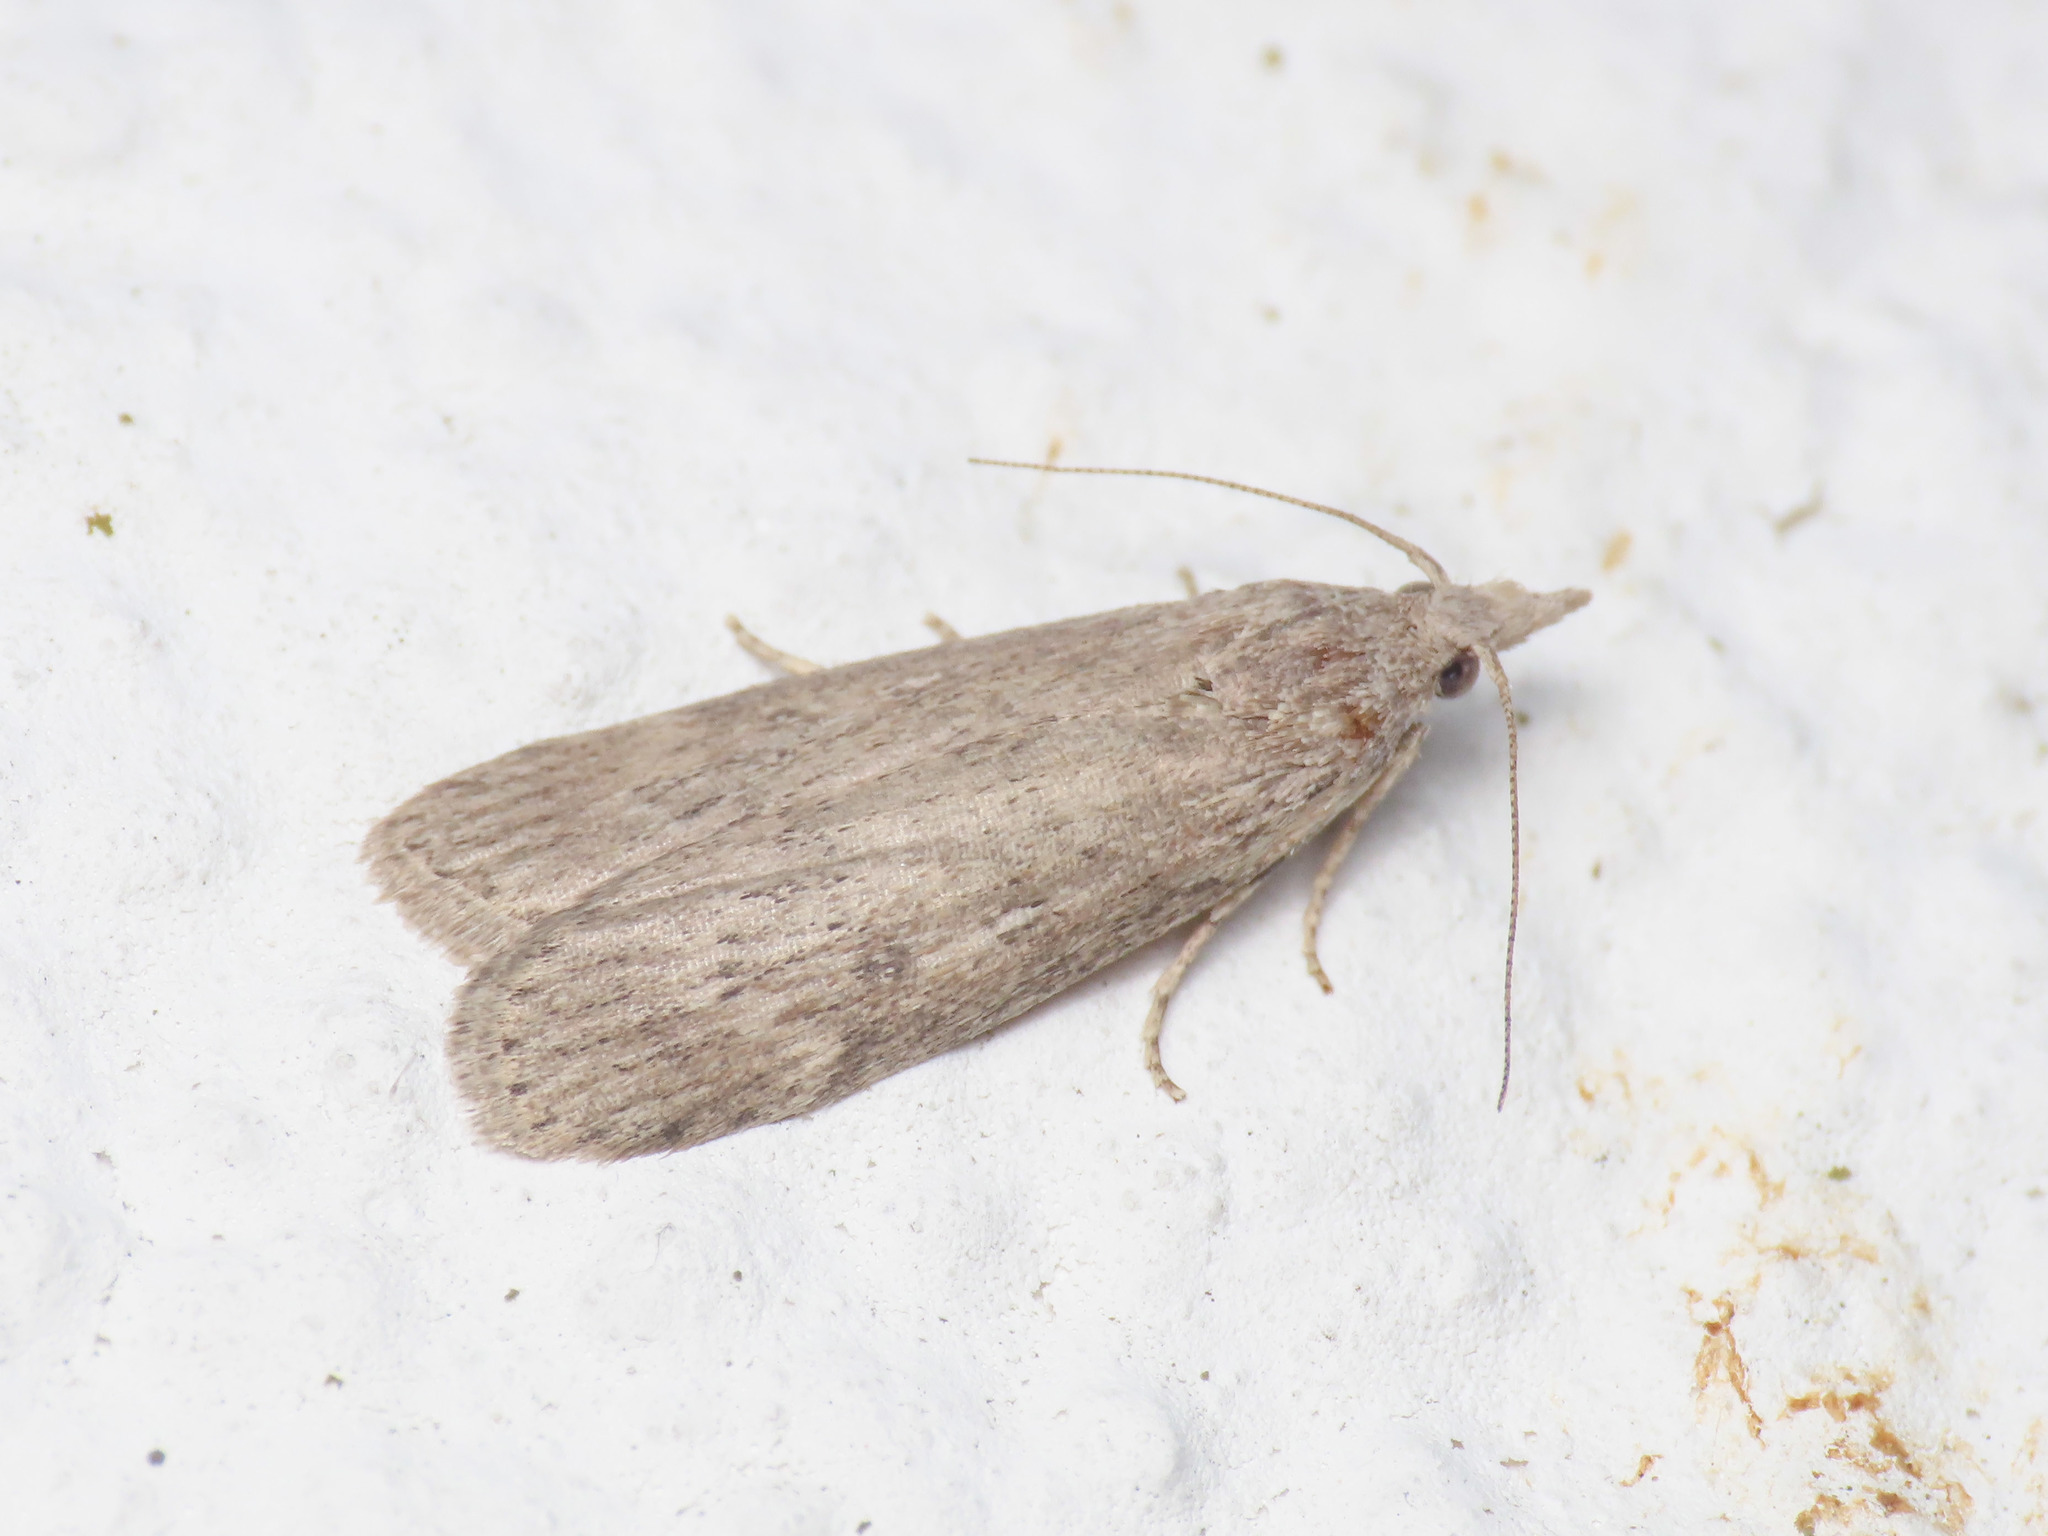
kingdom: Animalia
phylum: Arthropoda
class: Insecta
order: Lepidoptera
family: Pyralidae
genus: Lamoria
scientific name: Lamoria anella
